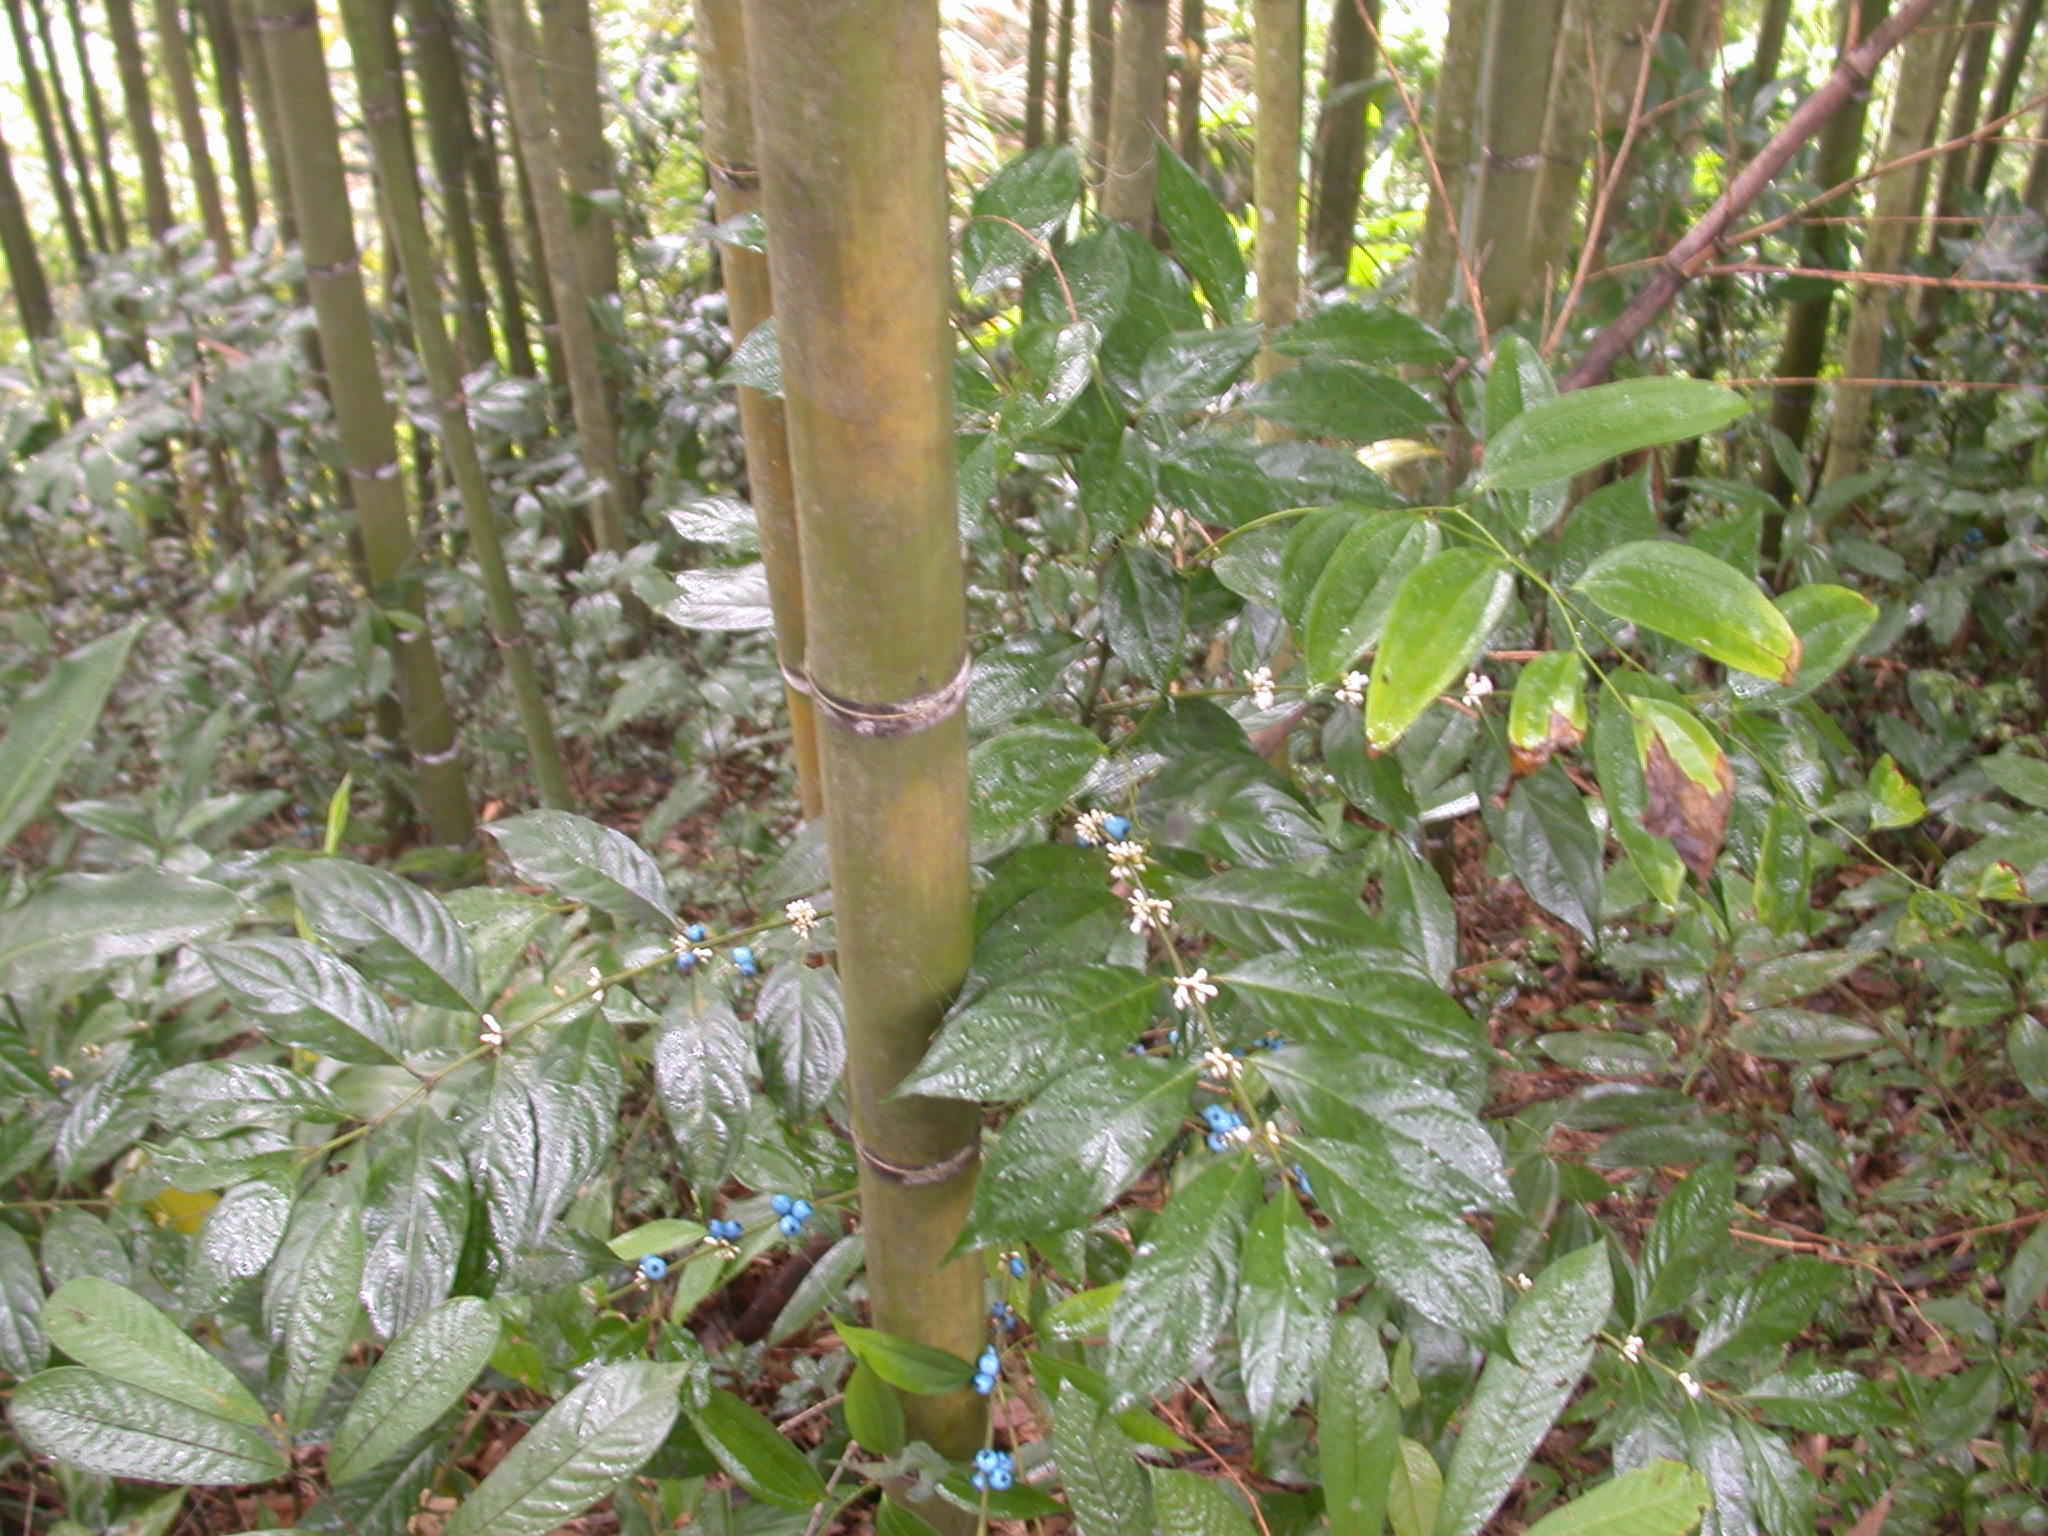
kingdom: Plantae
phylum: Tracheophyta
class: Magnoliopsida
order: Gentianales
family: Rubiaceae
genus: Lasianthus
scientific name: Lasianthus fordii
